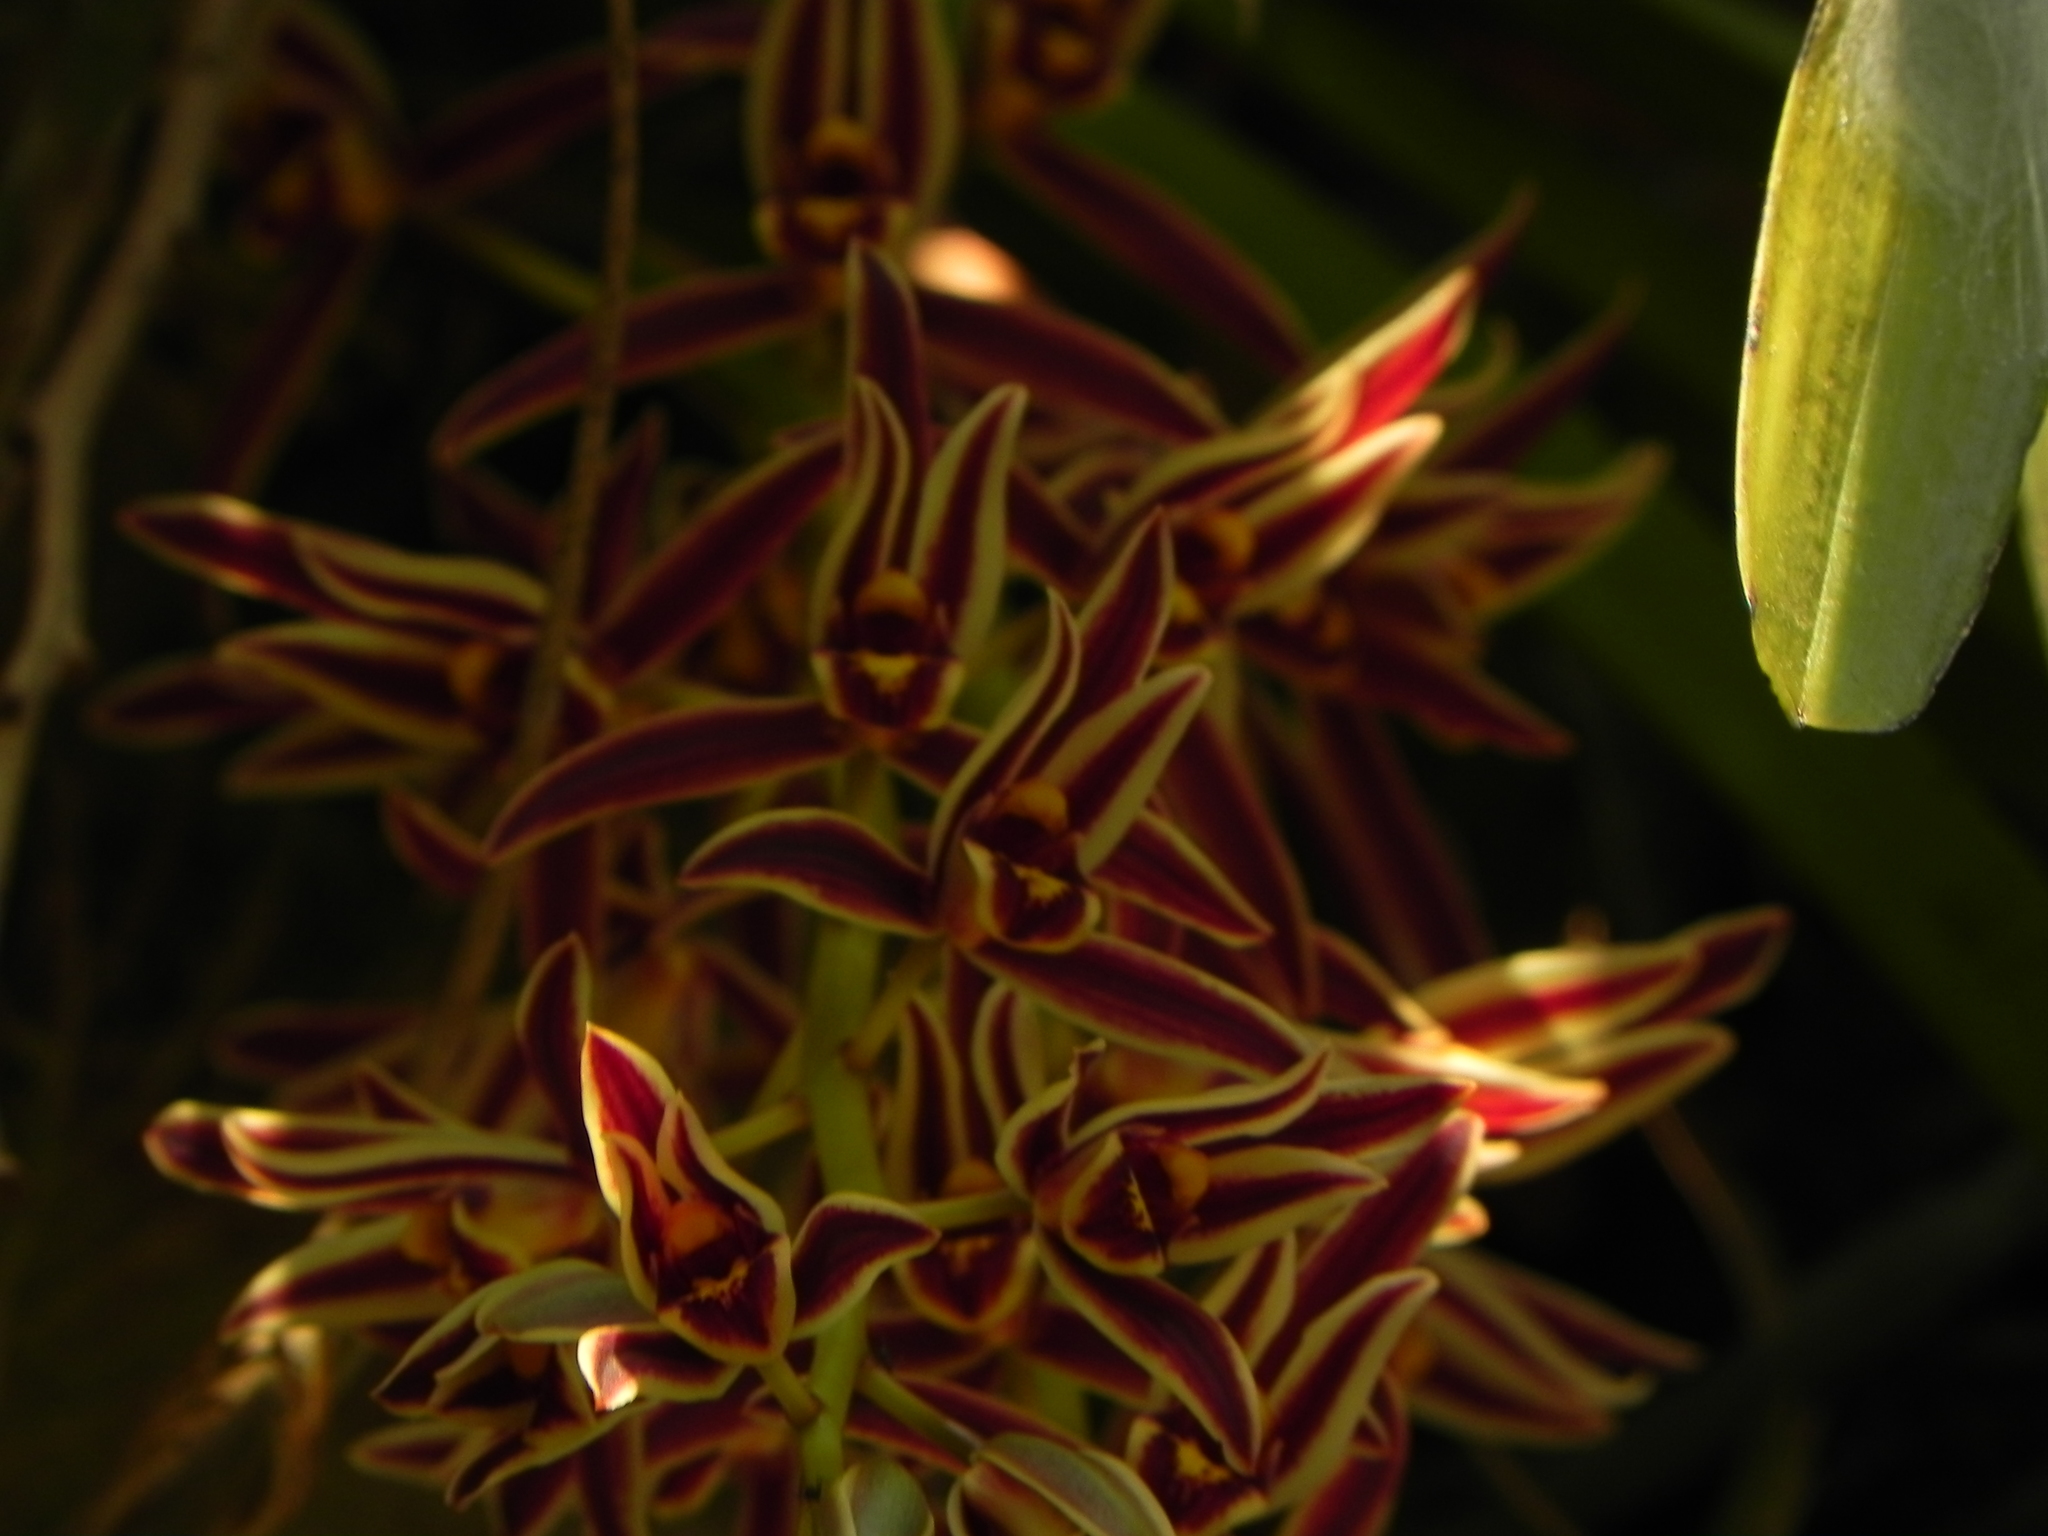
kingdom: Plantae
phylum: Tracheophyta
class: Liliopsida
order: Asparagales
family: Orchidaceae
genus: Cymbidium
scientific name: Cymbidium bicolor
